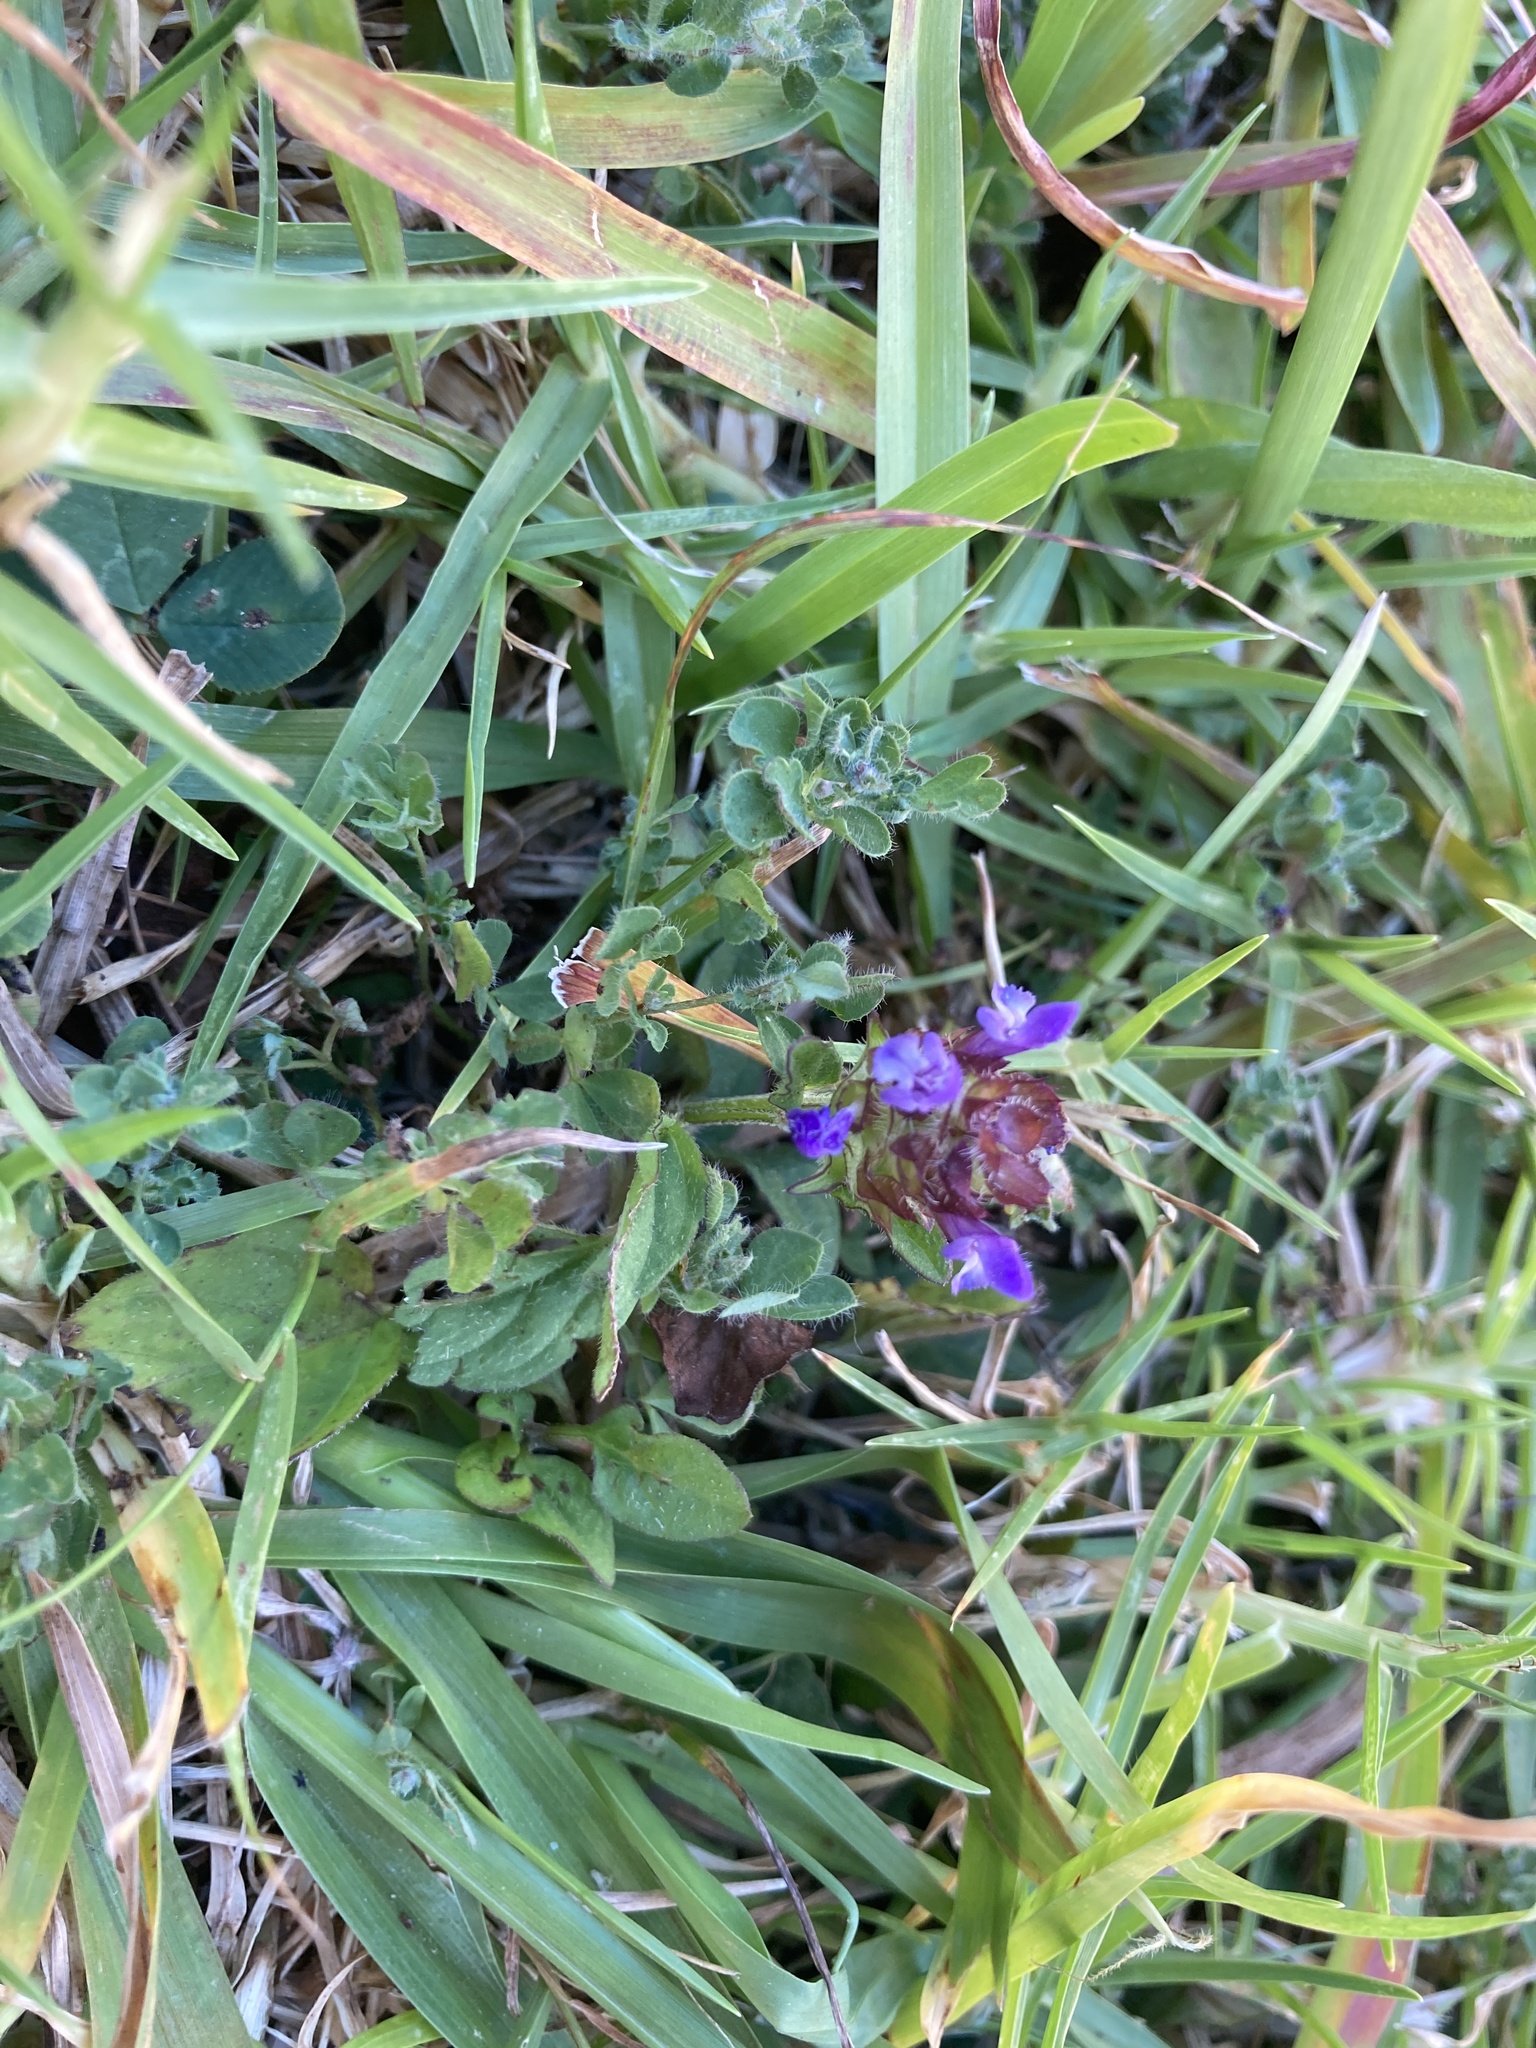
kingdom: Plantae
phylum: Tracheophyta
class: Magnoliopsida
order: Lamiales
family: Lamiaceae
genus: Prunella
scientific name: Prunella vulgaris
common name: Heal-all
